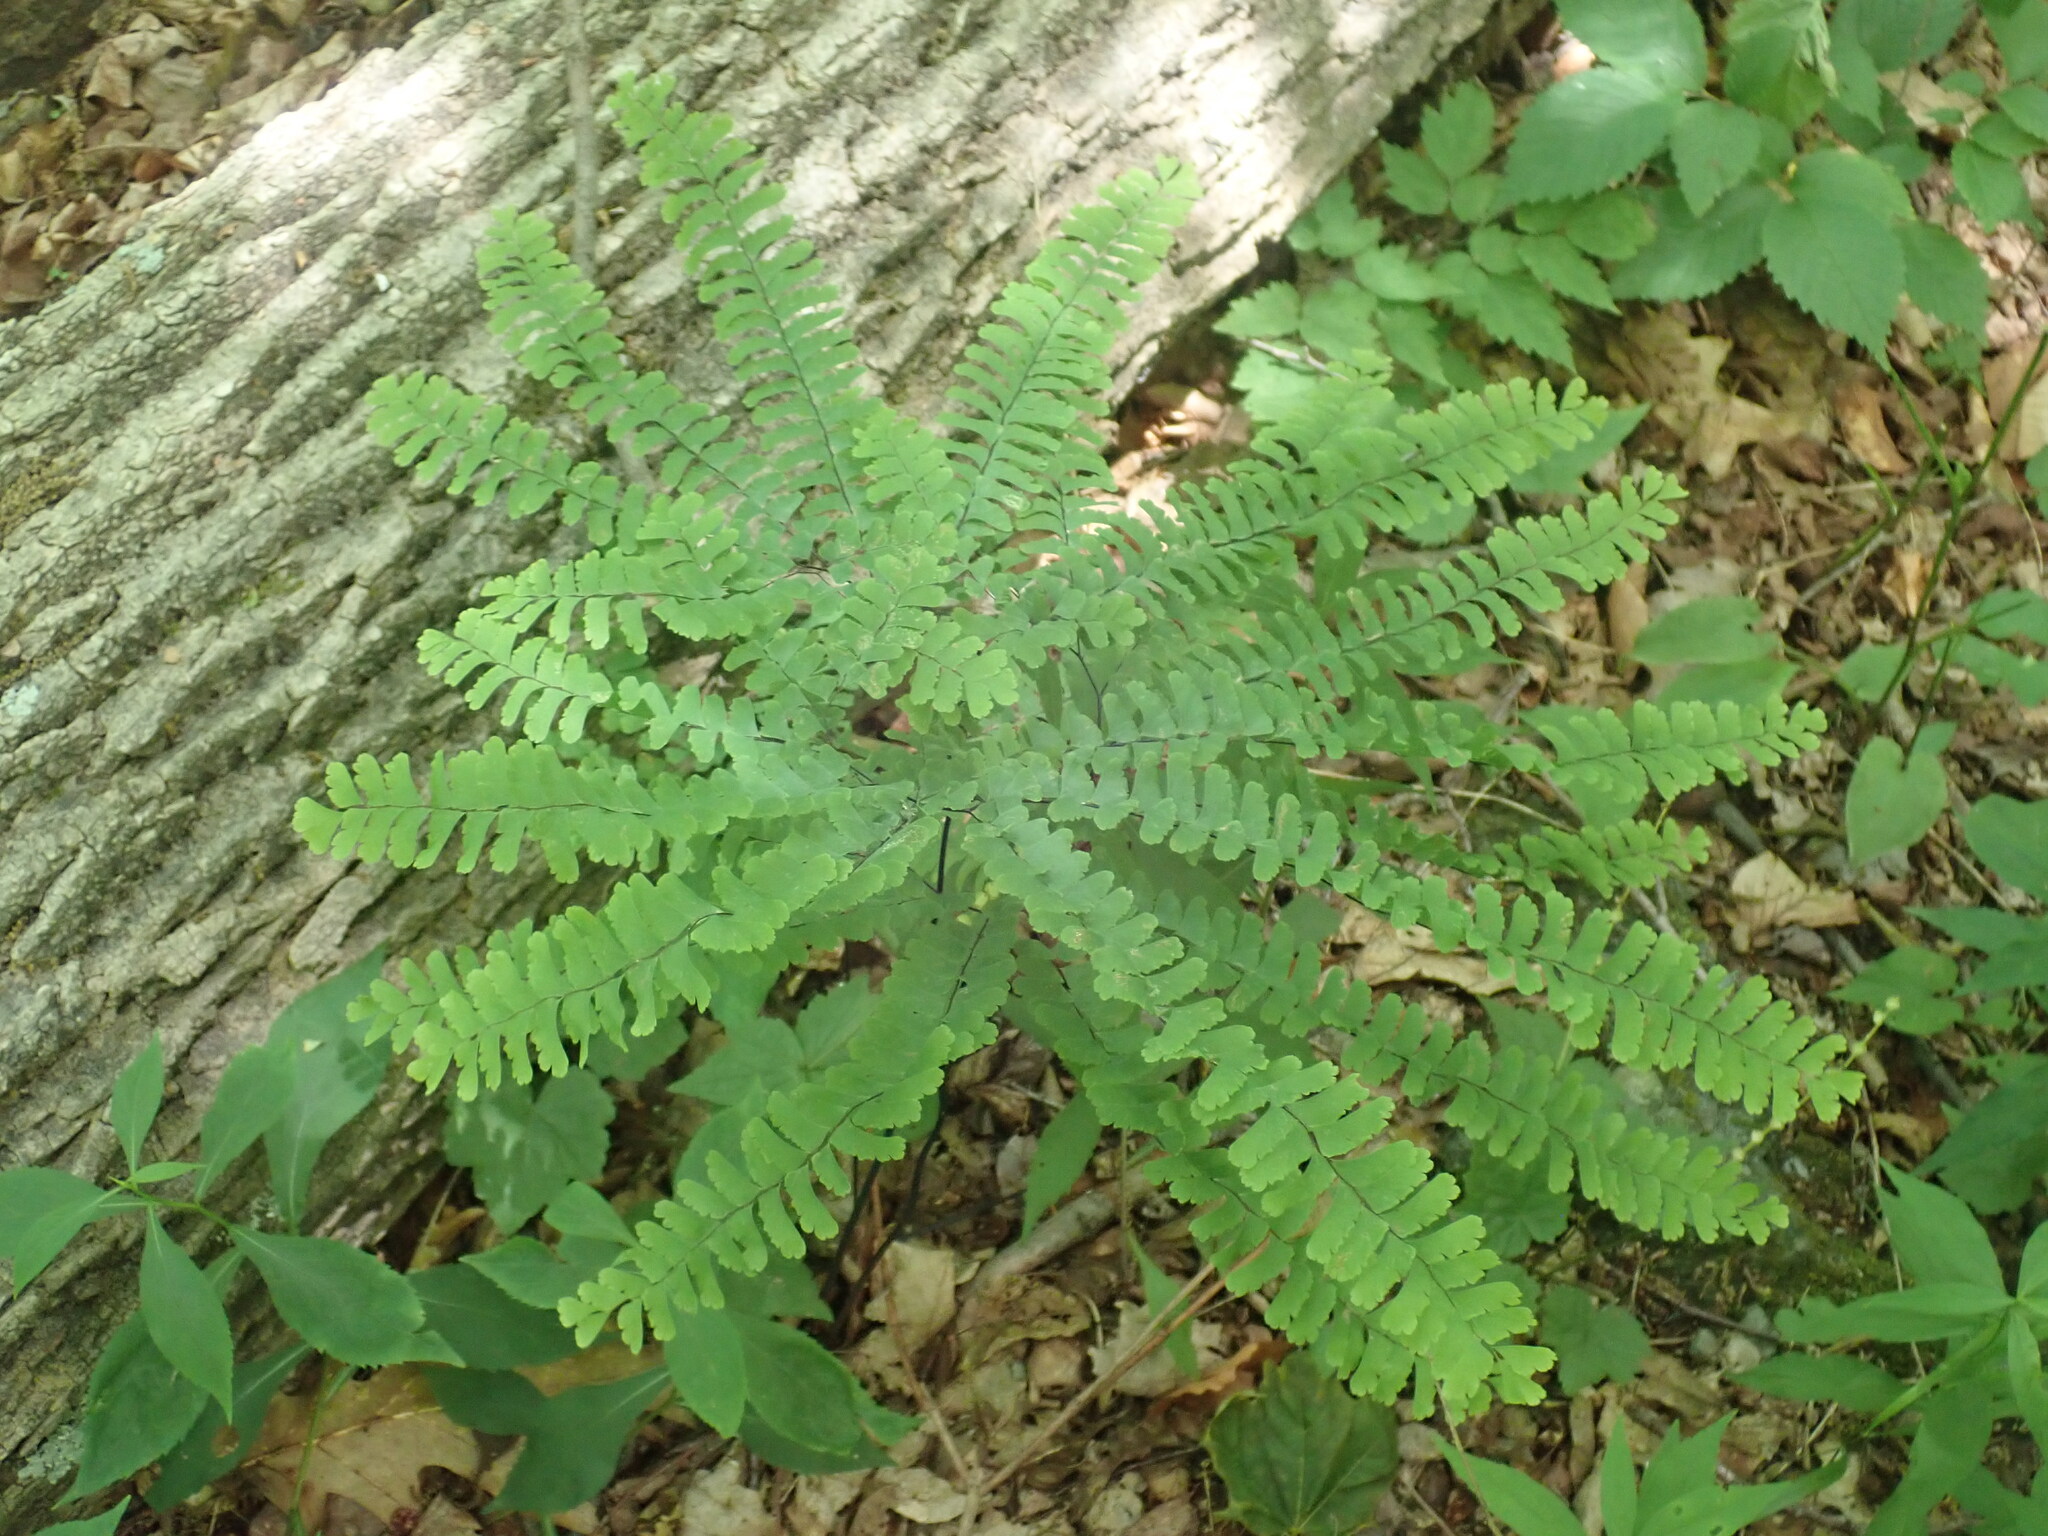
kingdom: Plantae
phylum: Tracheophyta
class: Polypodiopsida
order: Polypodiales
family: Pteridaceae
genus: Adiantum
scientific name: Adiantum pedatum
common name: Five-finger fern
